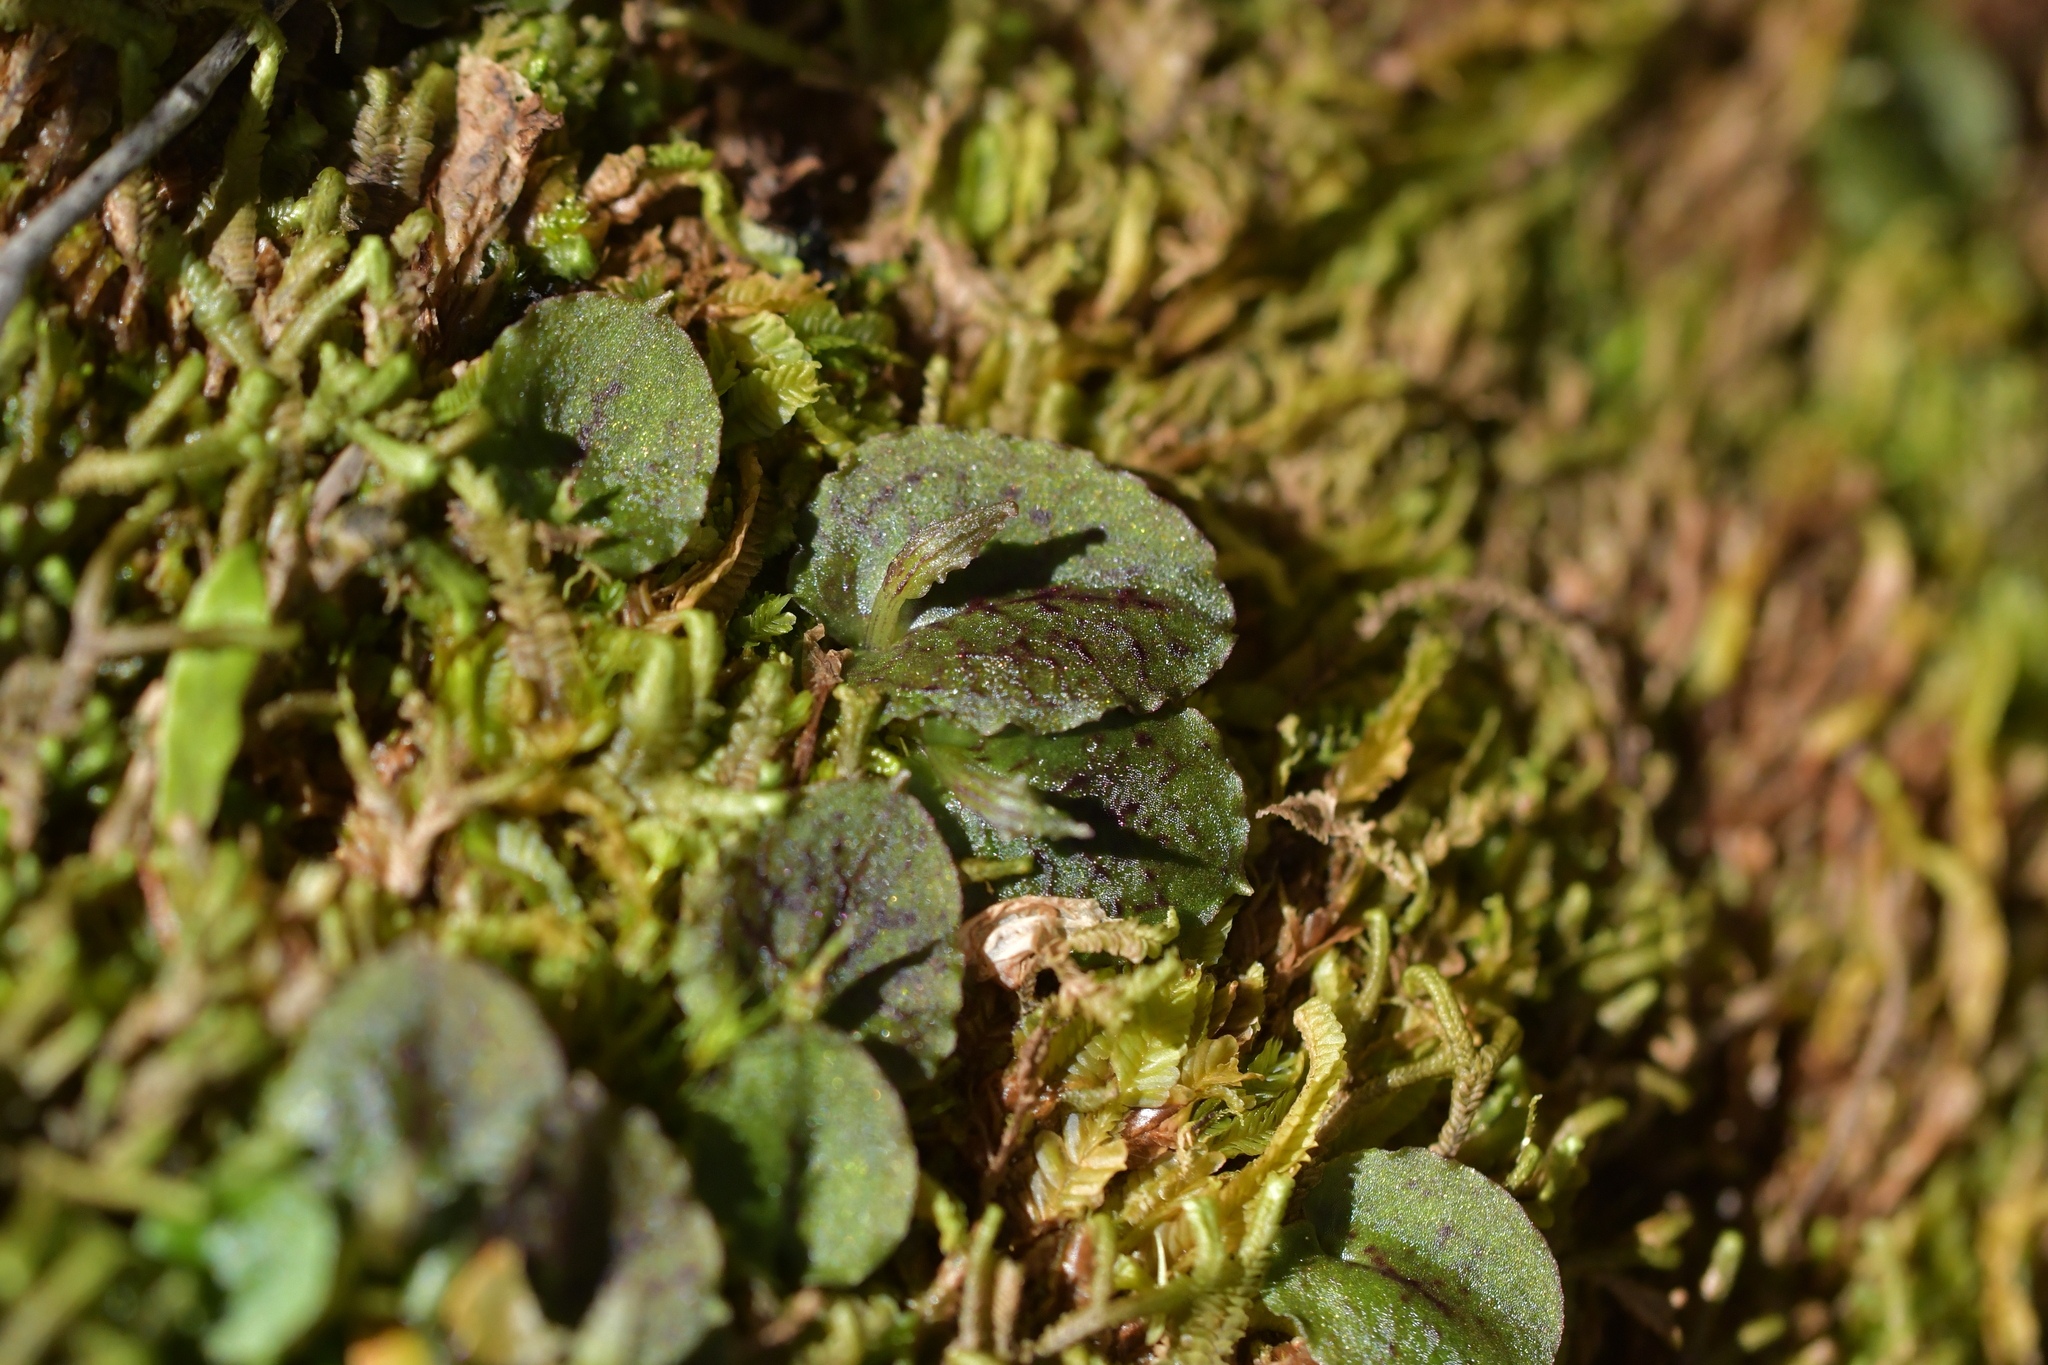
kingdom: Plantae
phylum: Tracheophyta
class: Liliopsida
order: Asparagales
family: Orchidaceae
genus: Corybas
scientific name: Corybas oblongus
